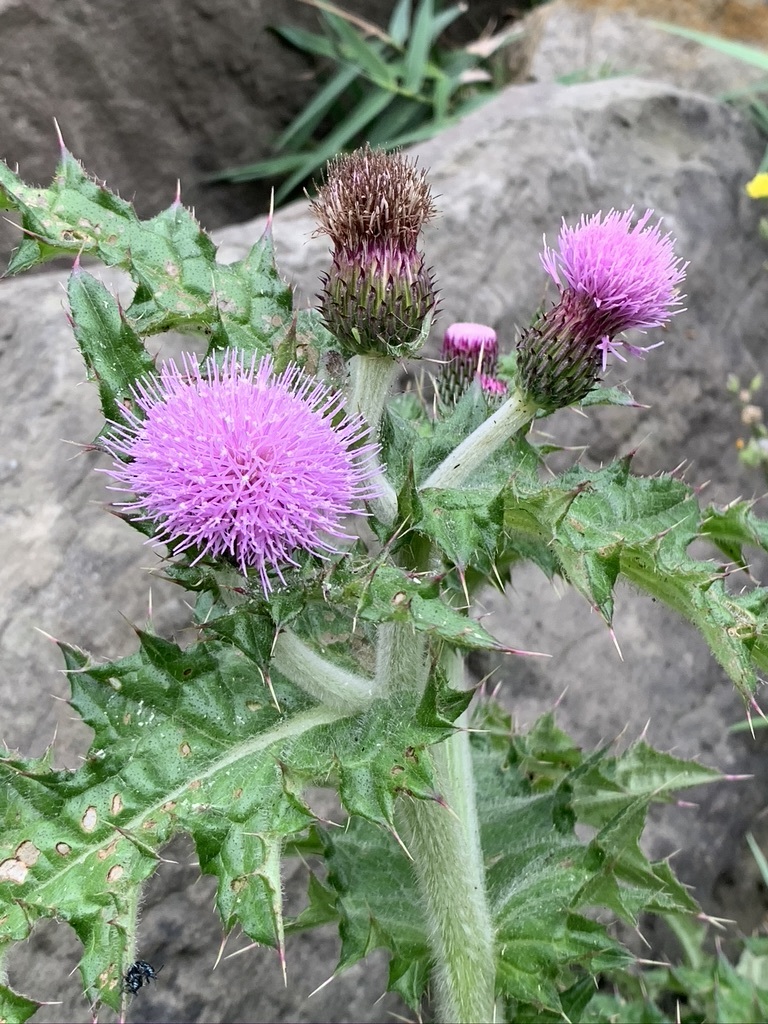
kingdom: Plantae
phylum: Tracheophyta
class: Magnoliopsida
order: Asterales
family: Asteraceae
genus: Cirsium
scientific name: Cirsium japonicum
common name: Japanese thistle
